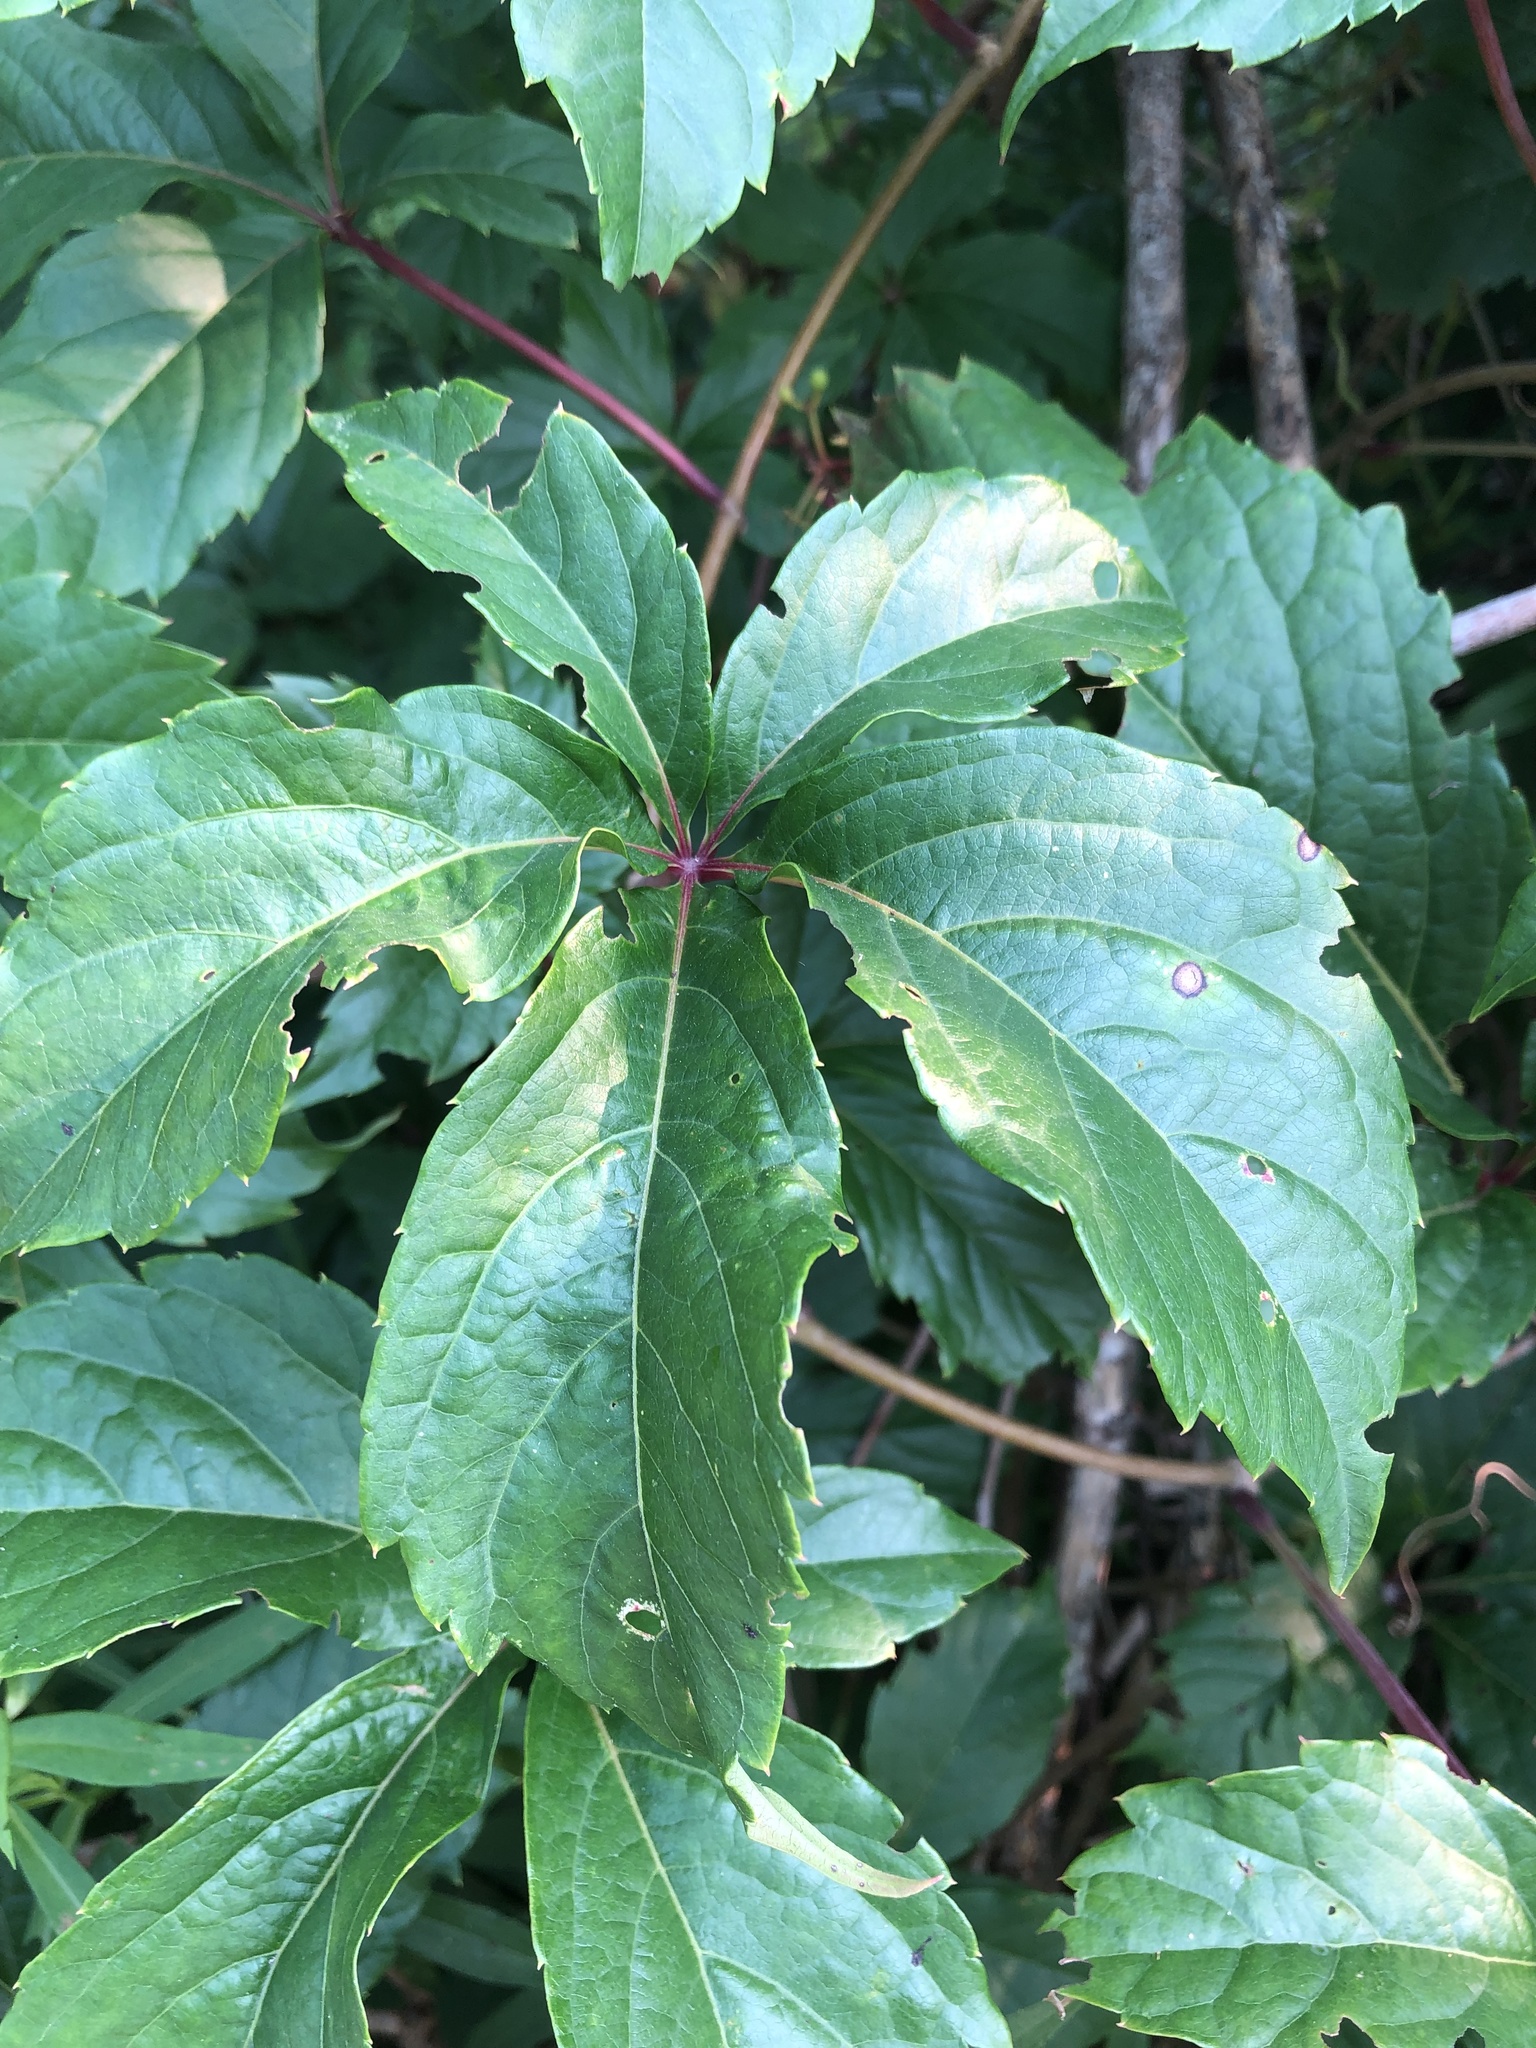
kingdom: Plantae
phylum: Tracheophyta
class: Magnoliopsida
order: Vitales
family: Vitaceae
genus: Parthenocissus
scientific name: Parthenocissus inserta
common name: False virginia-creeper
